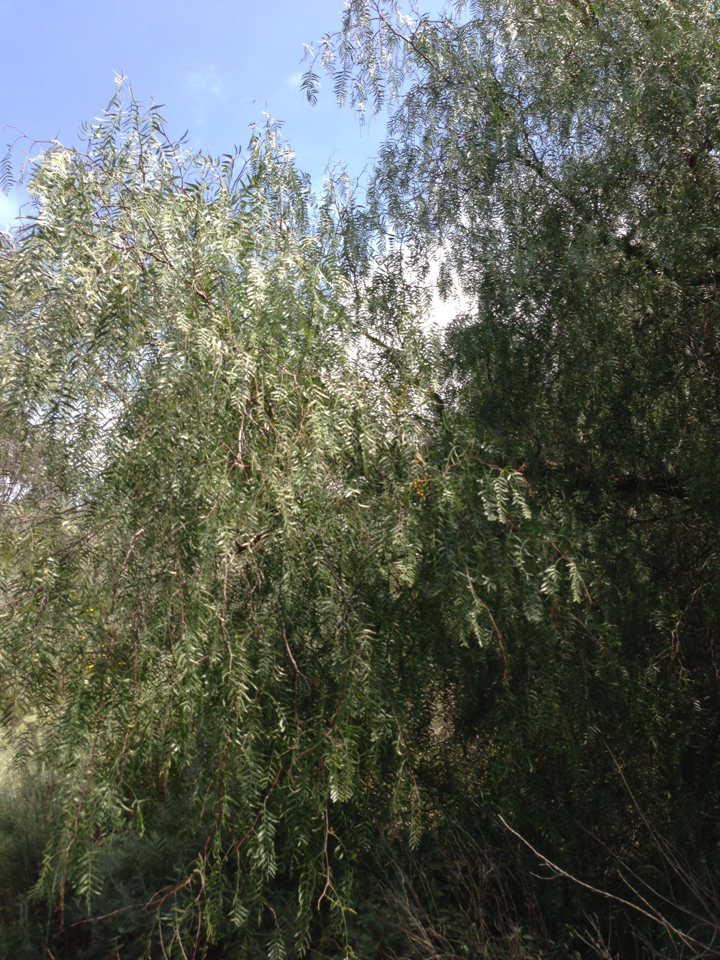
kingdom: Plantae
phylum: Tracheophyta
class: Magnoliopsida
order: Sapindales
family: Anacardiaceae
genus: Schinus
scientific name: Schinus molle
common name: Peruvian peppertree
